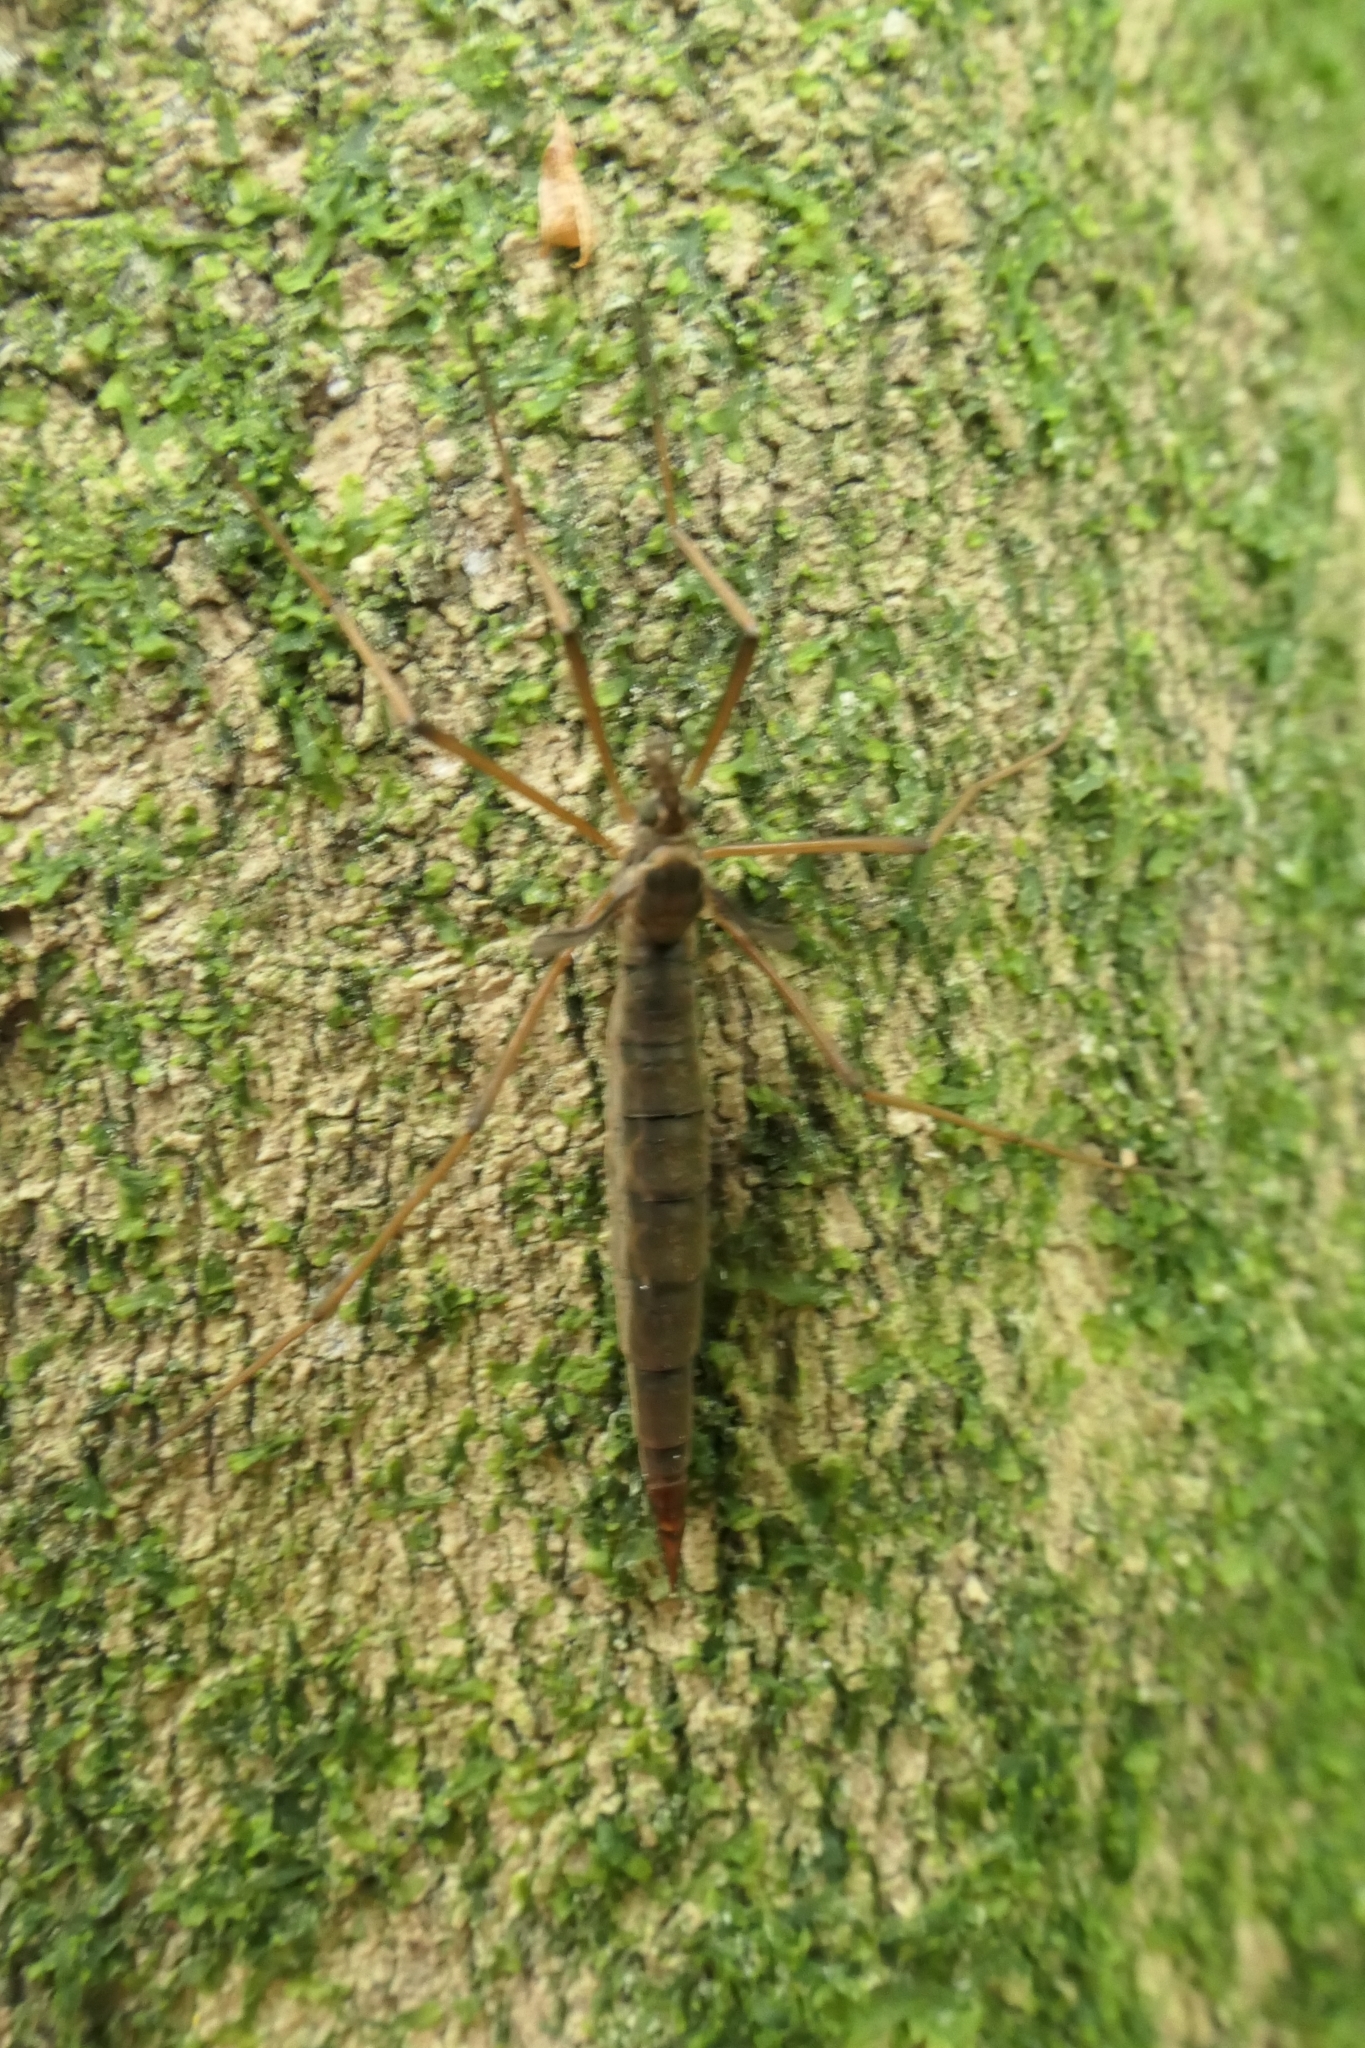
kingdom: Animalia
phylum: Arthropoda
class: Insecta
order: Diptera
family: Limoniidae
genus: Gynoplistia
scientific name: Gynoplistia pedestris
